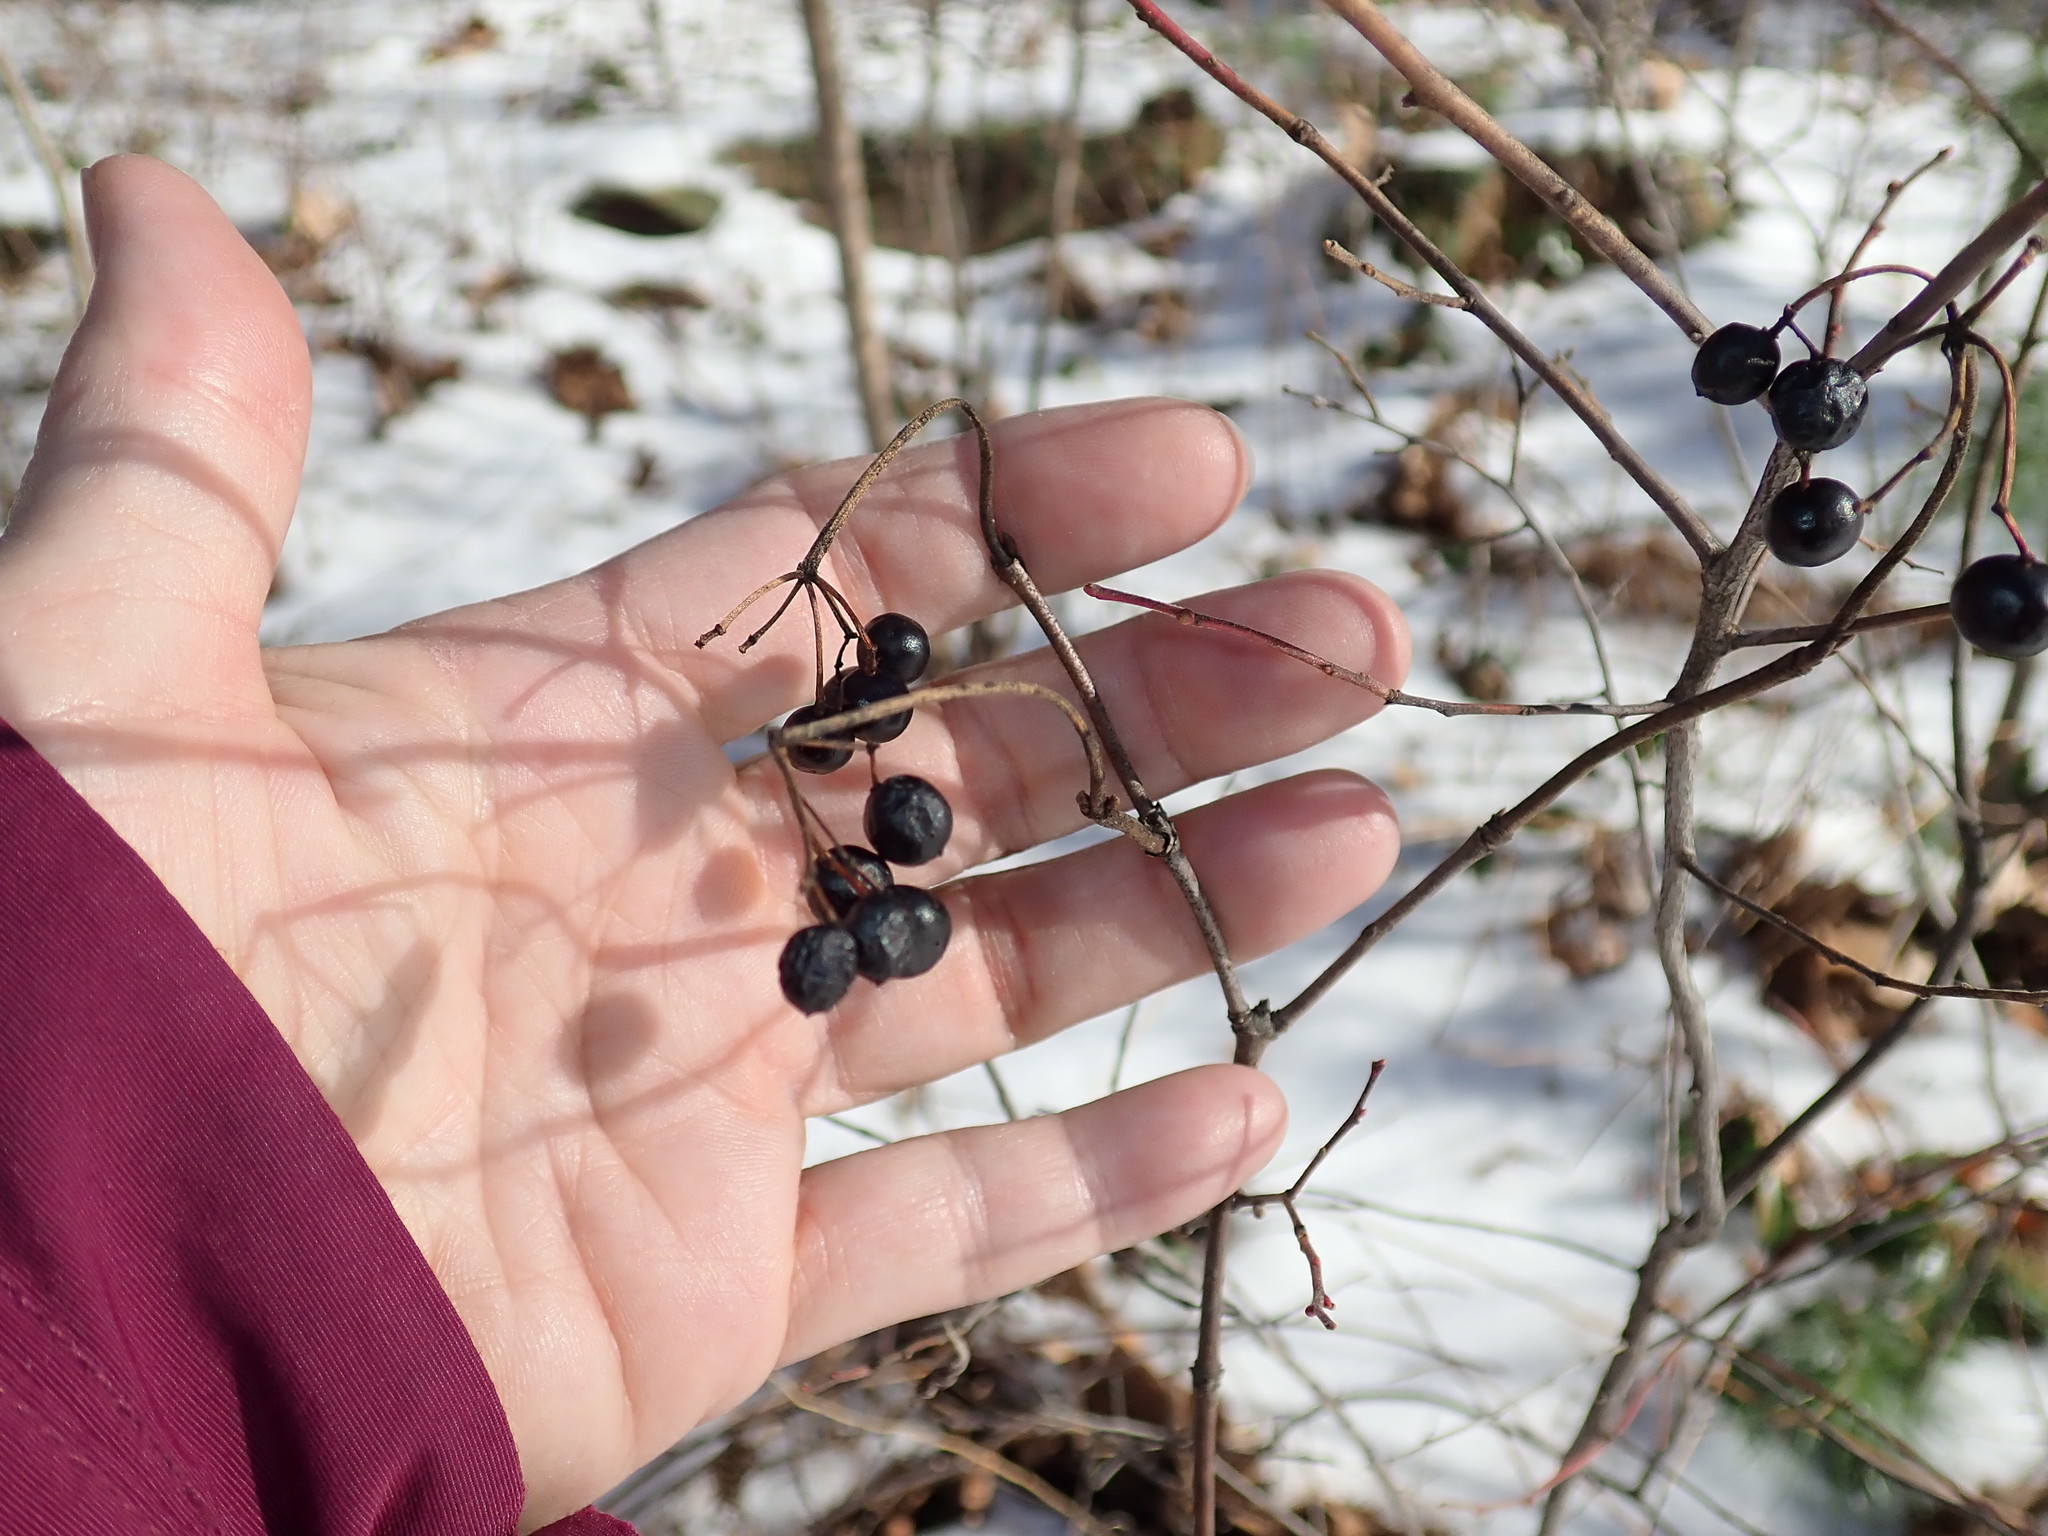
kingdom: Plantae
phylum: Tracheophyta
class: Magnoliopsida
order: Dipsacales
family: Viburnaceae
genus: Viburnum
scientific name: Viburnum acerifolium
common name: Dockmackie
